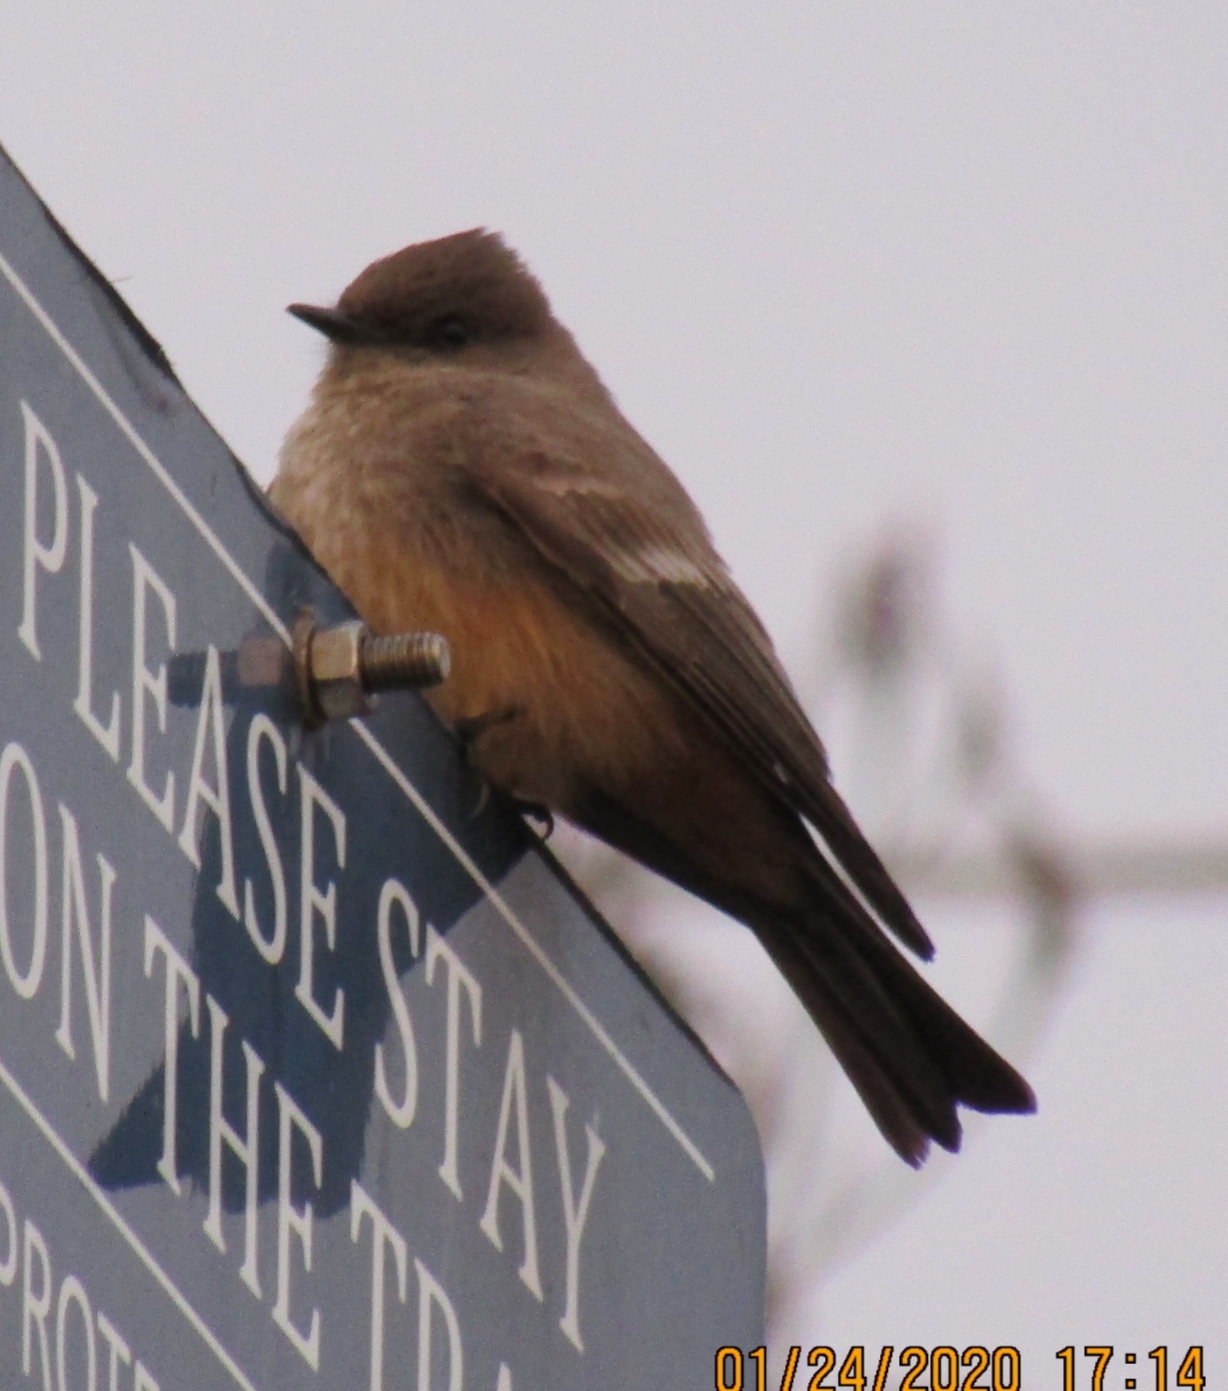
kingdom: Animalia
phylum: Chordata
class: Aves
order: Passeriformes
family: Tyrannidae
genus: Sayornis
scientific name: Sayornis saya
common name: Say's phoebe
